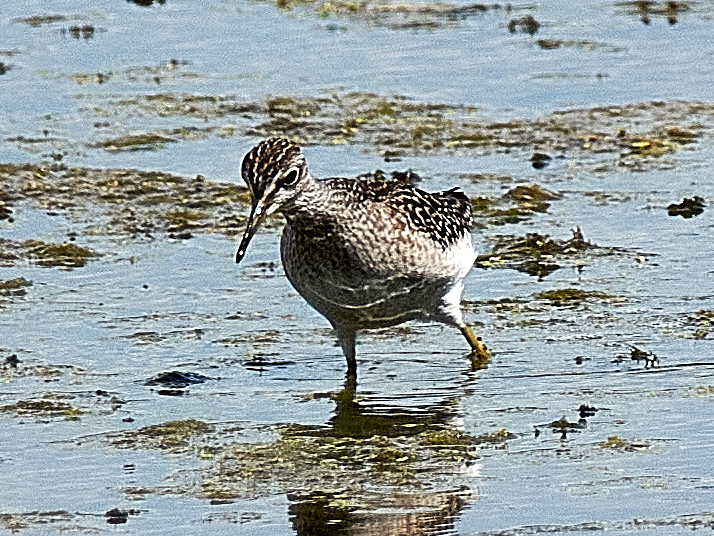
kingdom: Animalia
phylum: Chordata
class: Aves
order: Charadriiformes
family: Scolopacidae
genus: Tringa
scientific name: Tringa glareola
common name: Wood sandpiper
